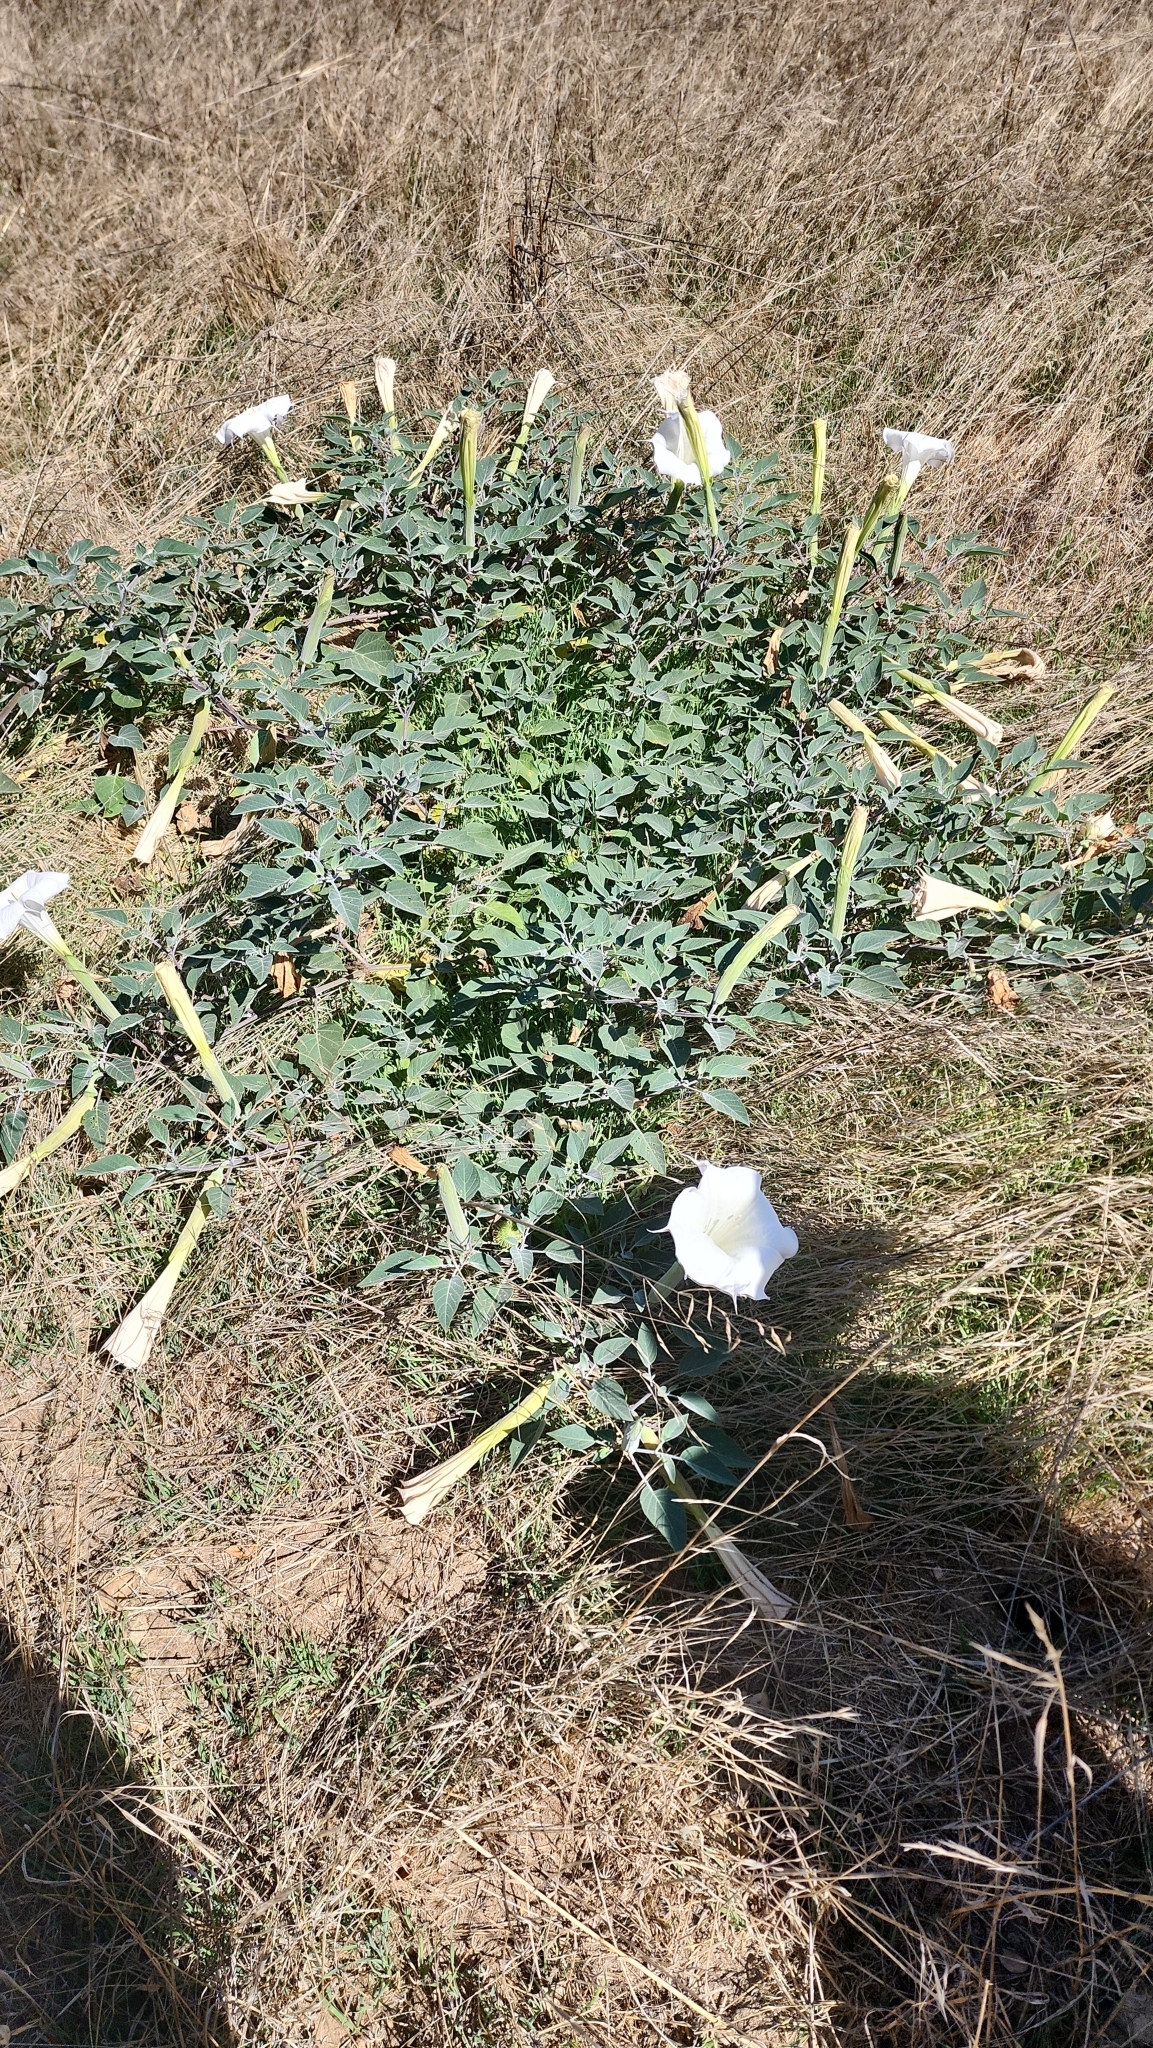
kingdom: Plantae
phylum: Tracheophyta
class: Magnoliopsida
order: Solanales
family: Solanaceae
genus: Datura
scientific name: Datura wrightii
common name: Sacred thorn-apple
